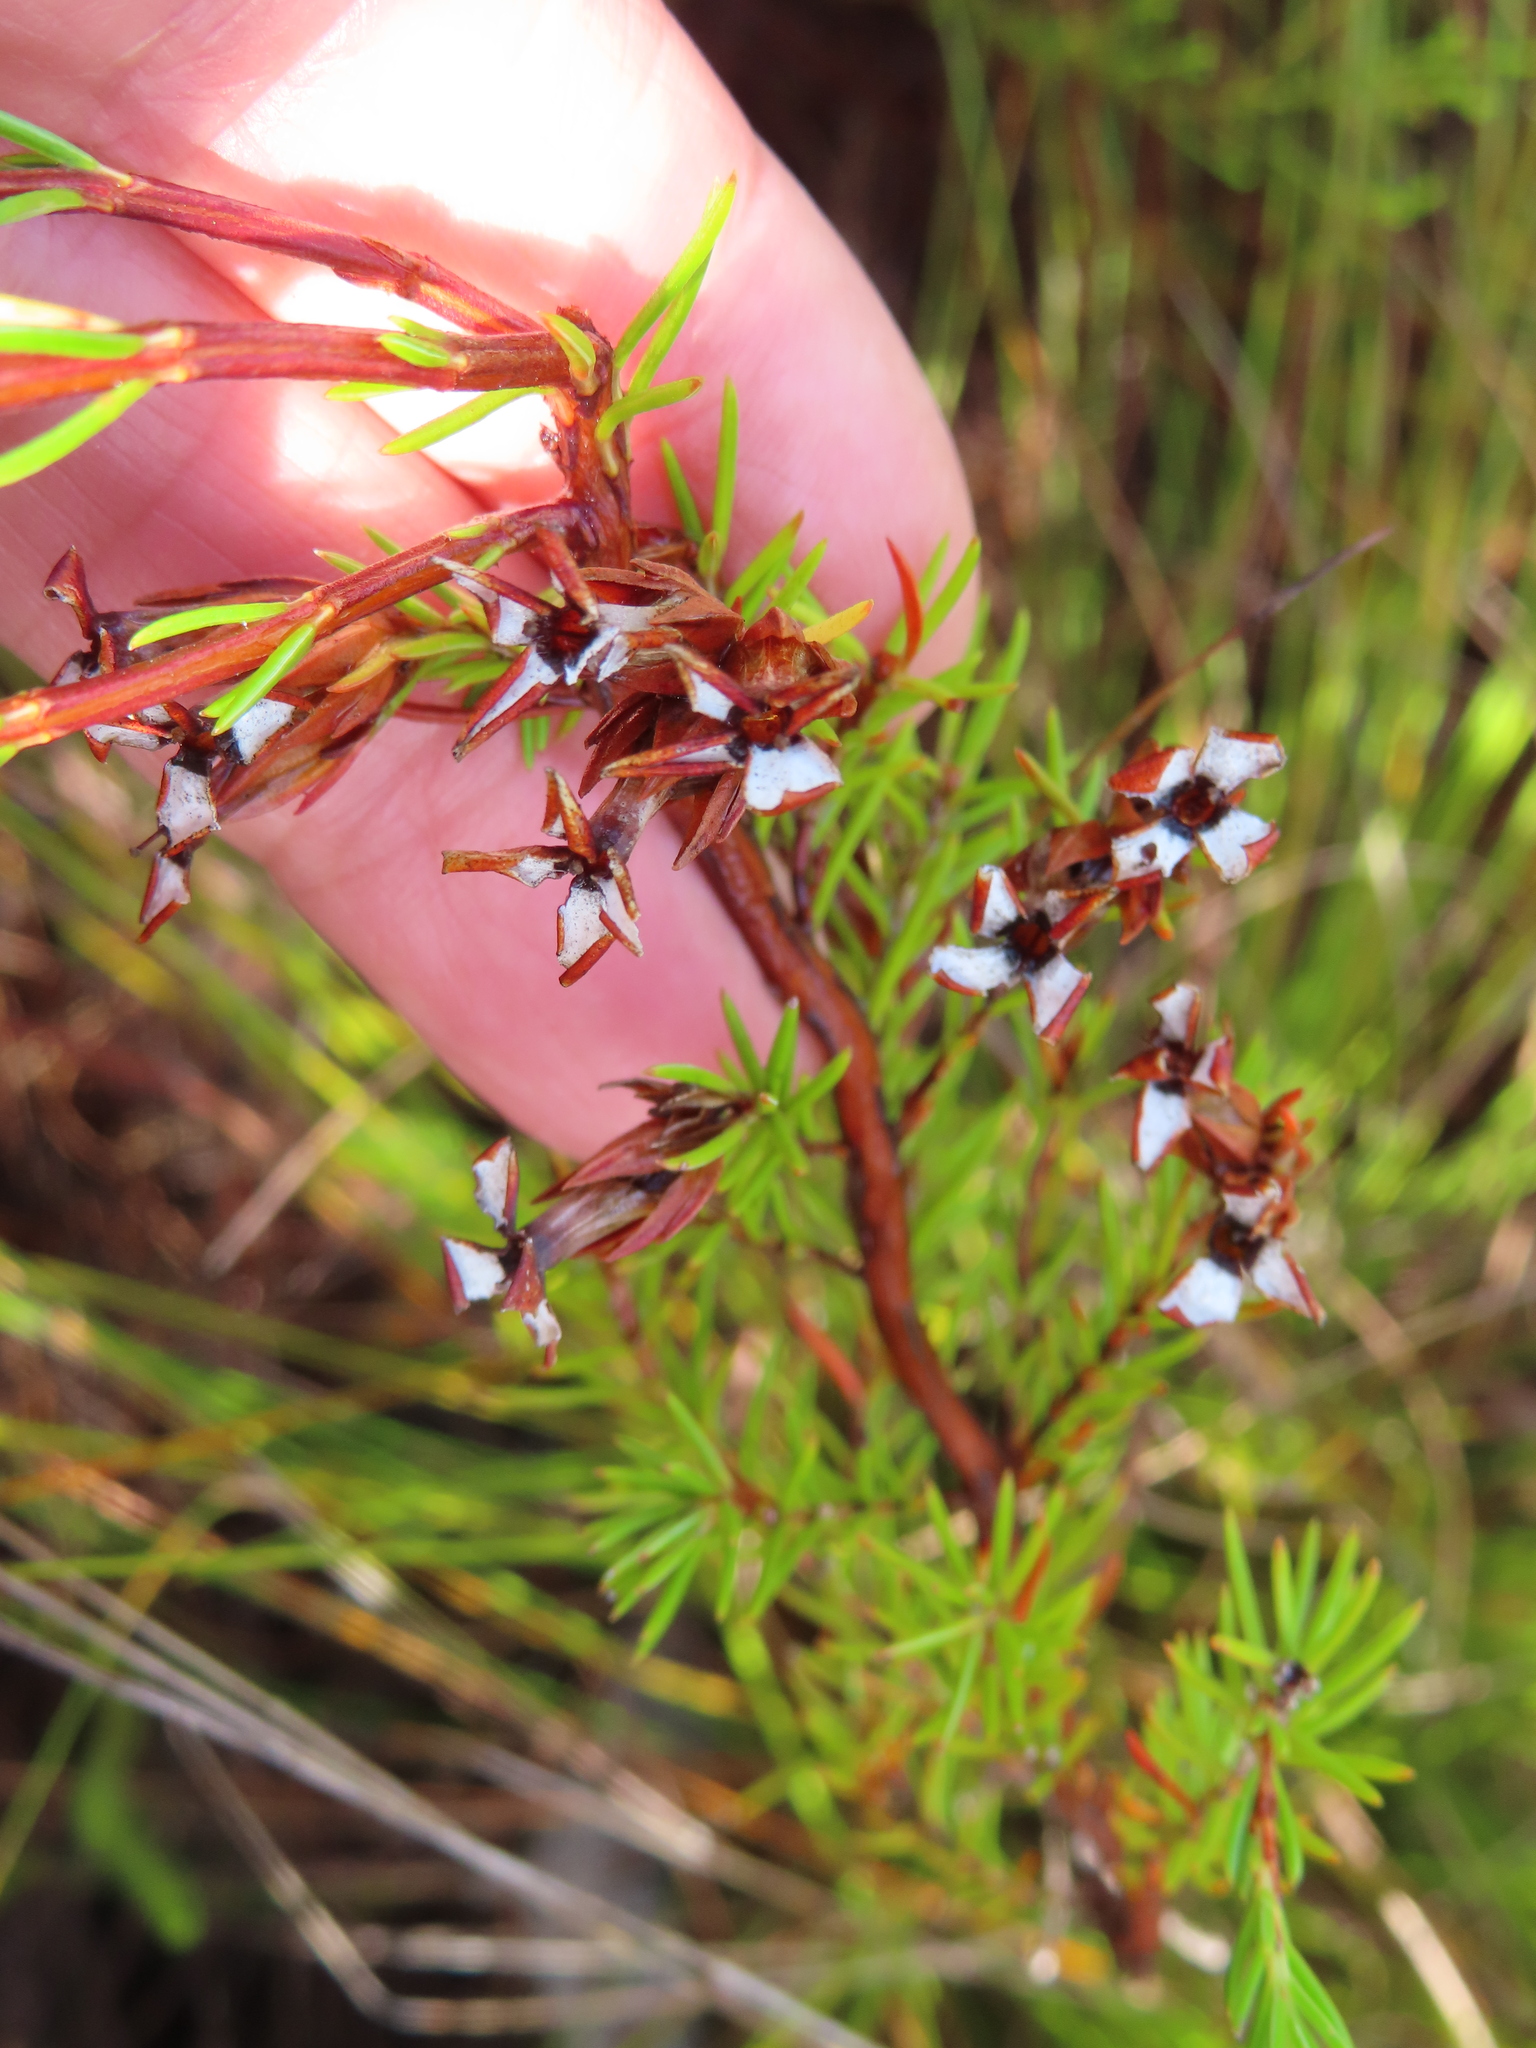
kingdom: Plantae
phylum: Tracheophyta
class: Magnoliopsida
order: Ericales
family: Ericaceae
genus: Erica
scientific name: Erica fastigiata
